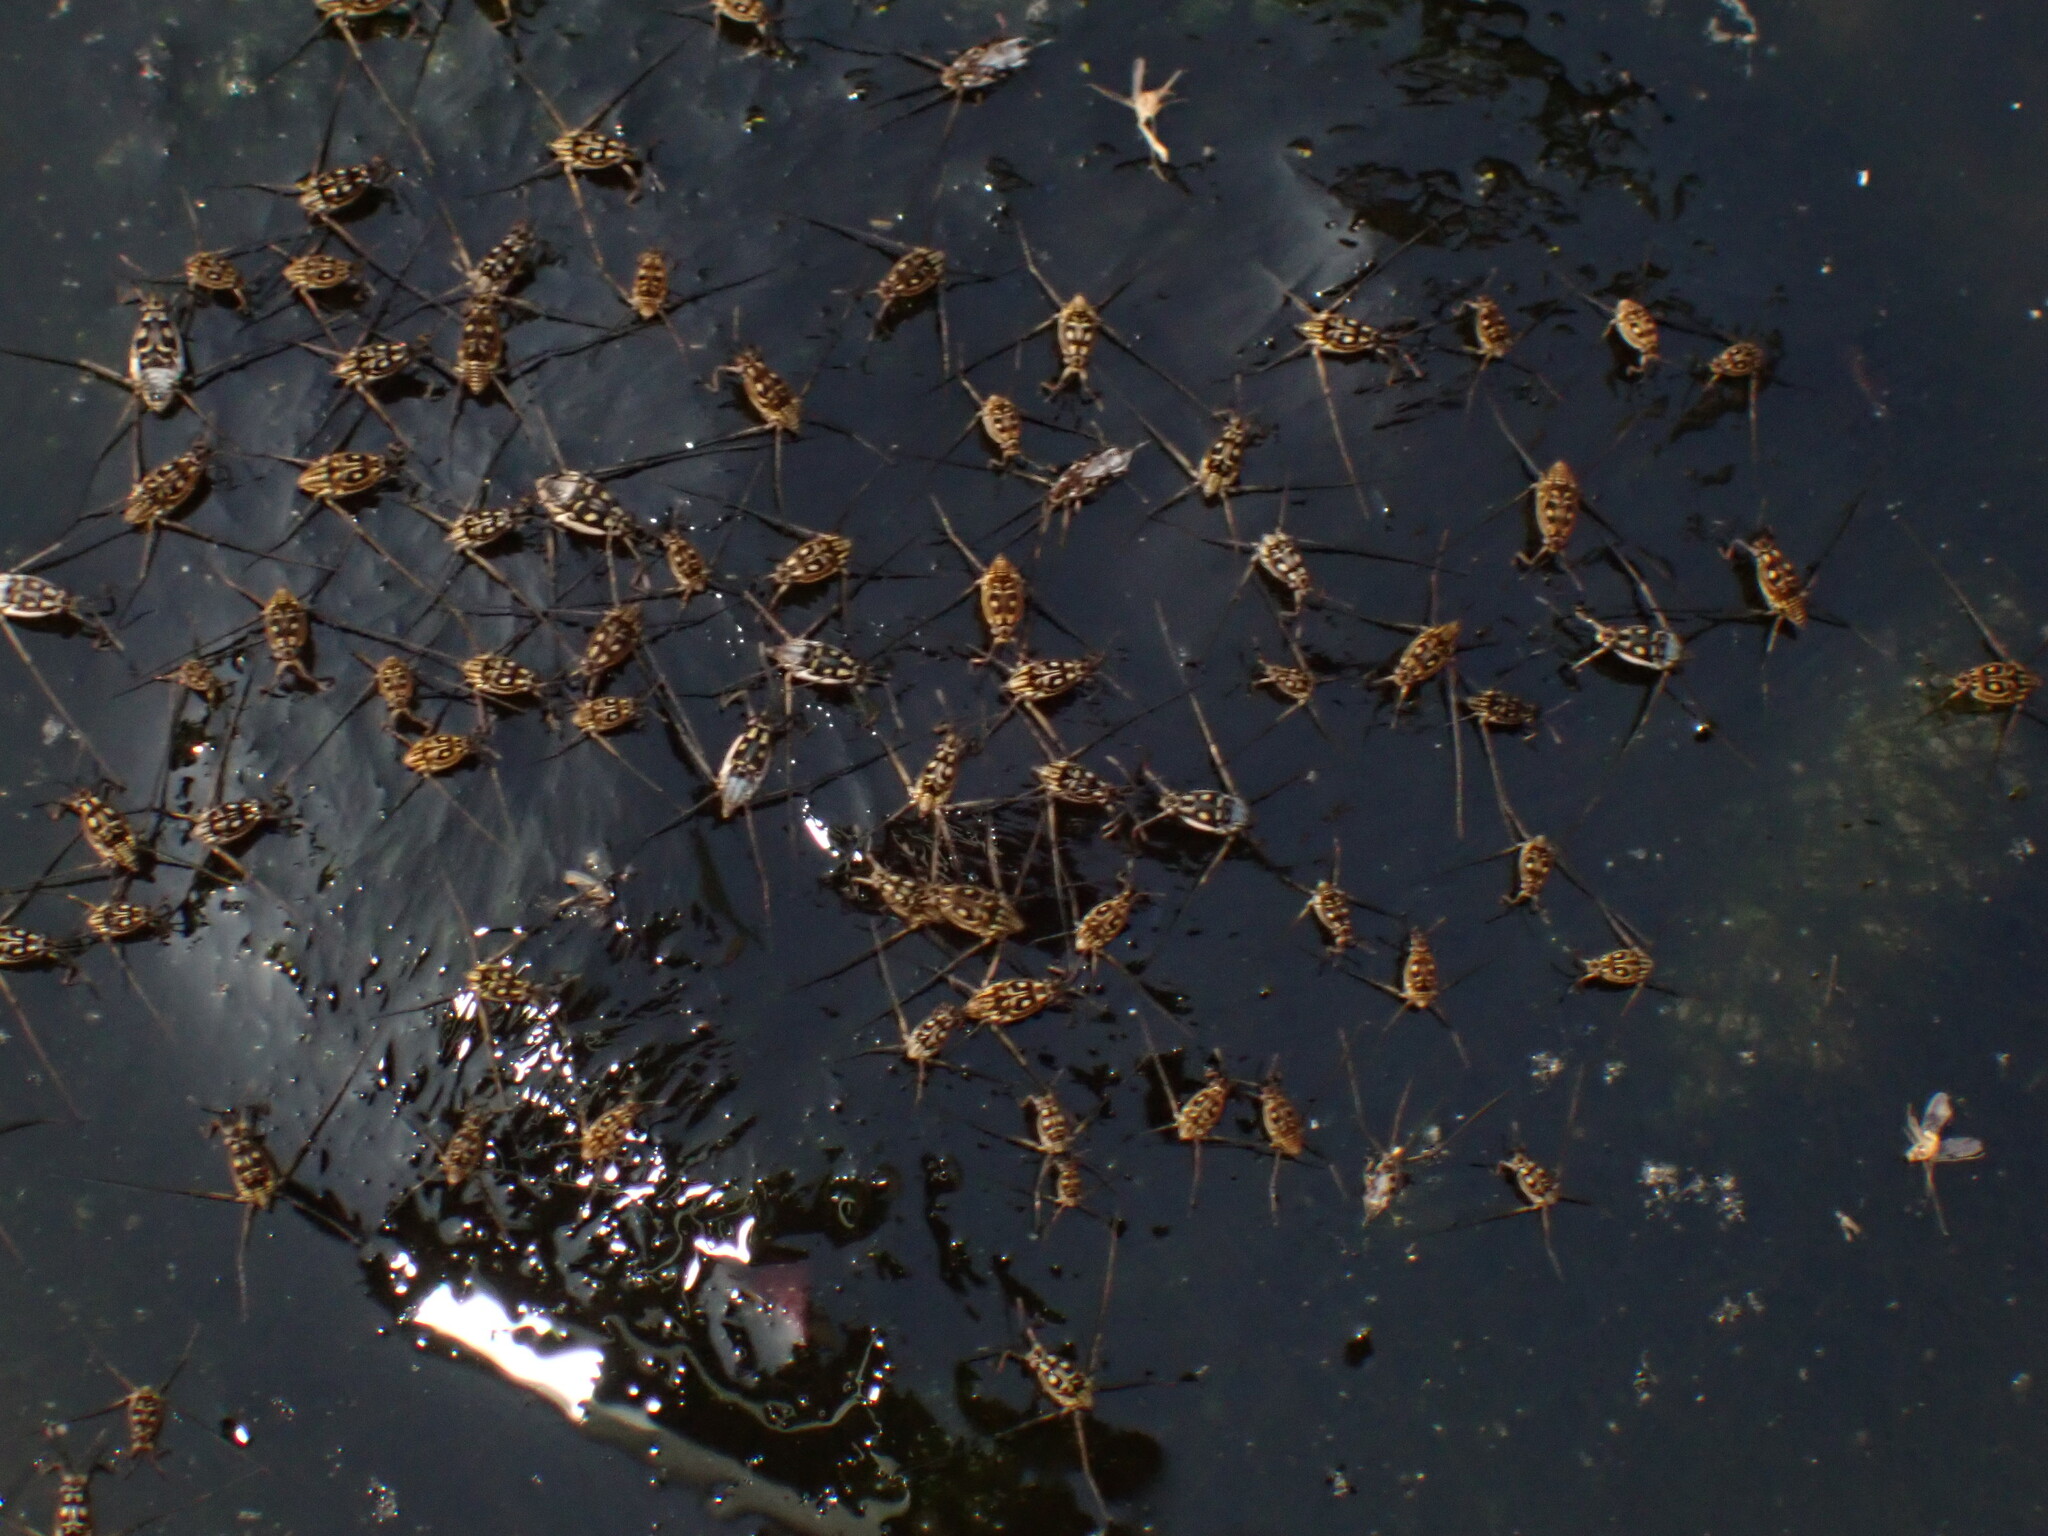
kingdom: Animalia
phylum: Arthropoda
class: Insecta
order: Hemiptera
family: Gerridae
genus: Trepobates
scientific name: Trepobates
